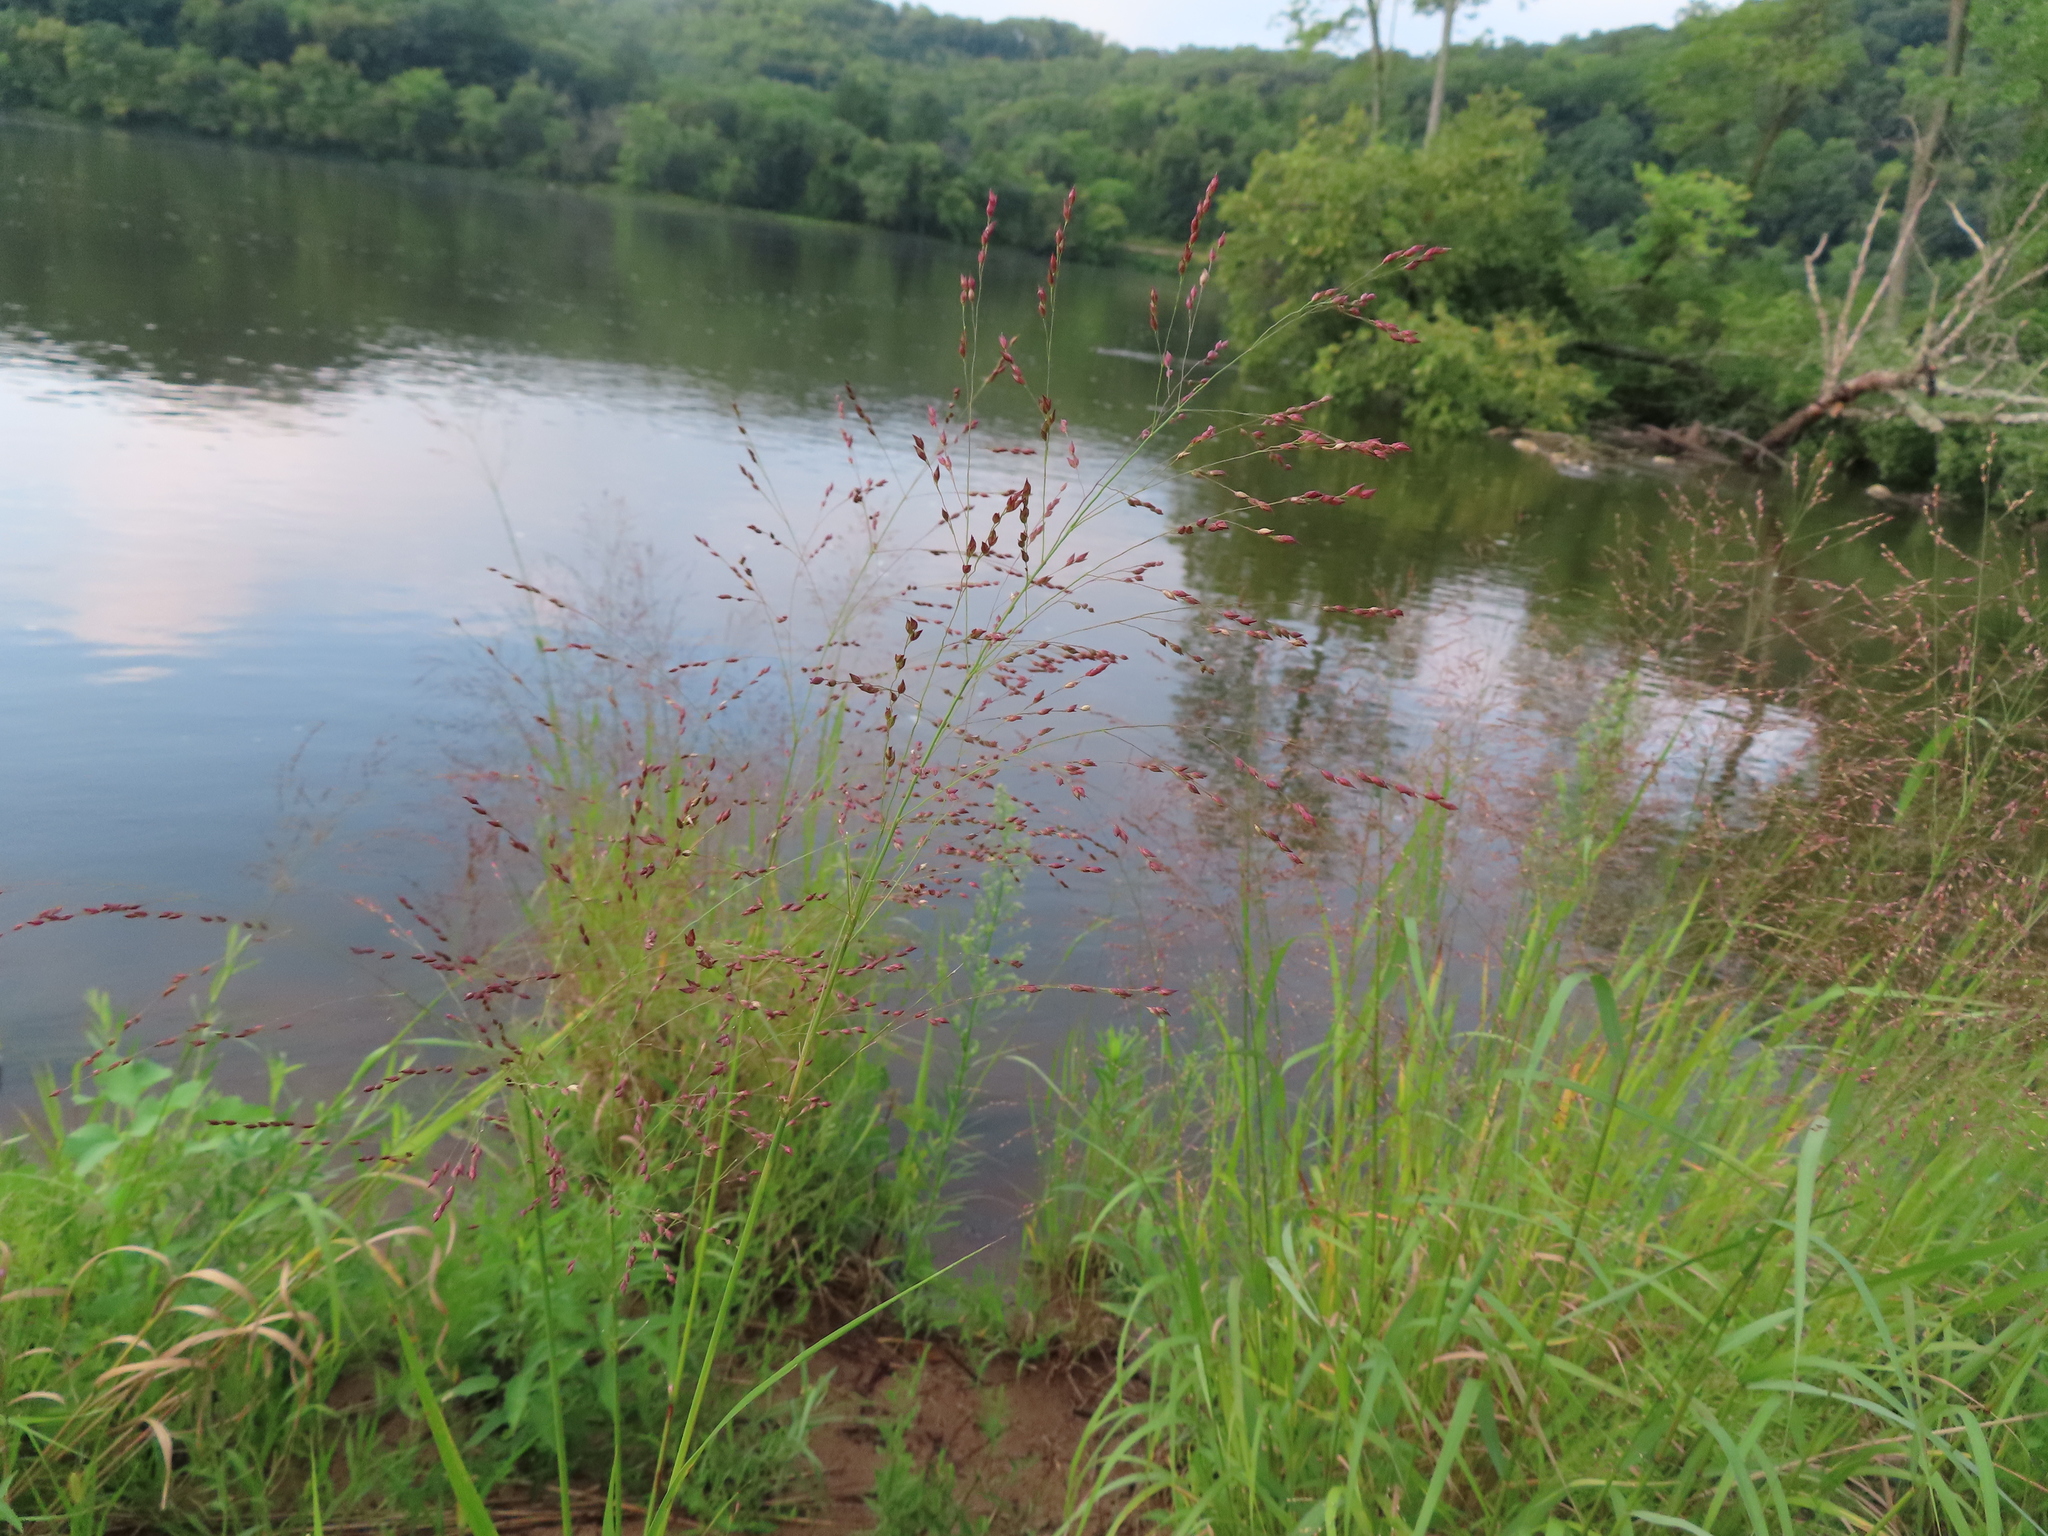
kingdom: Plantae
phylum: Tracheophyta
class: Liliopsida
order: Poales
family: Poaceae
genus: Panicum
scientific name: Panicum virgatum
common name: Switchgrass
